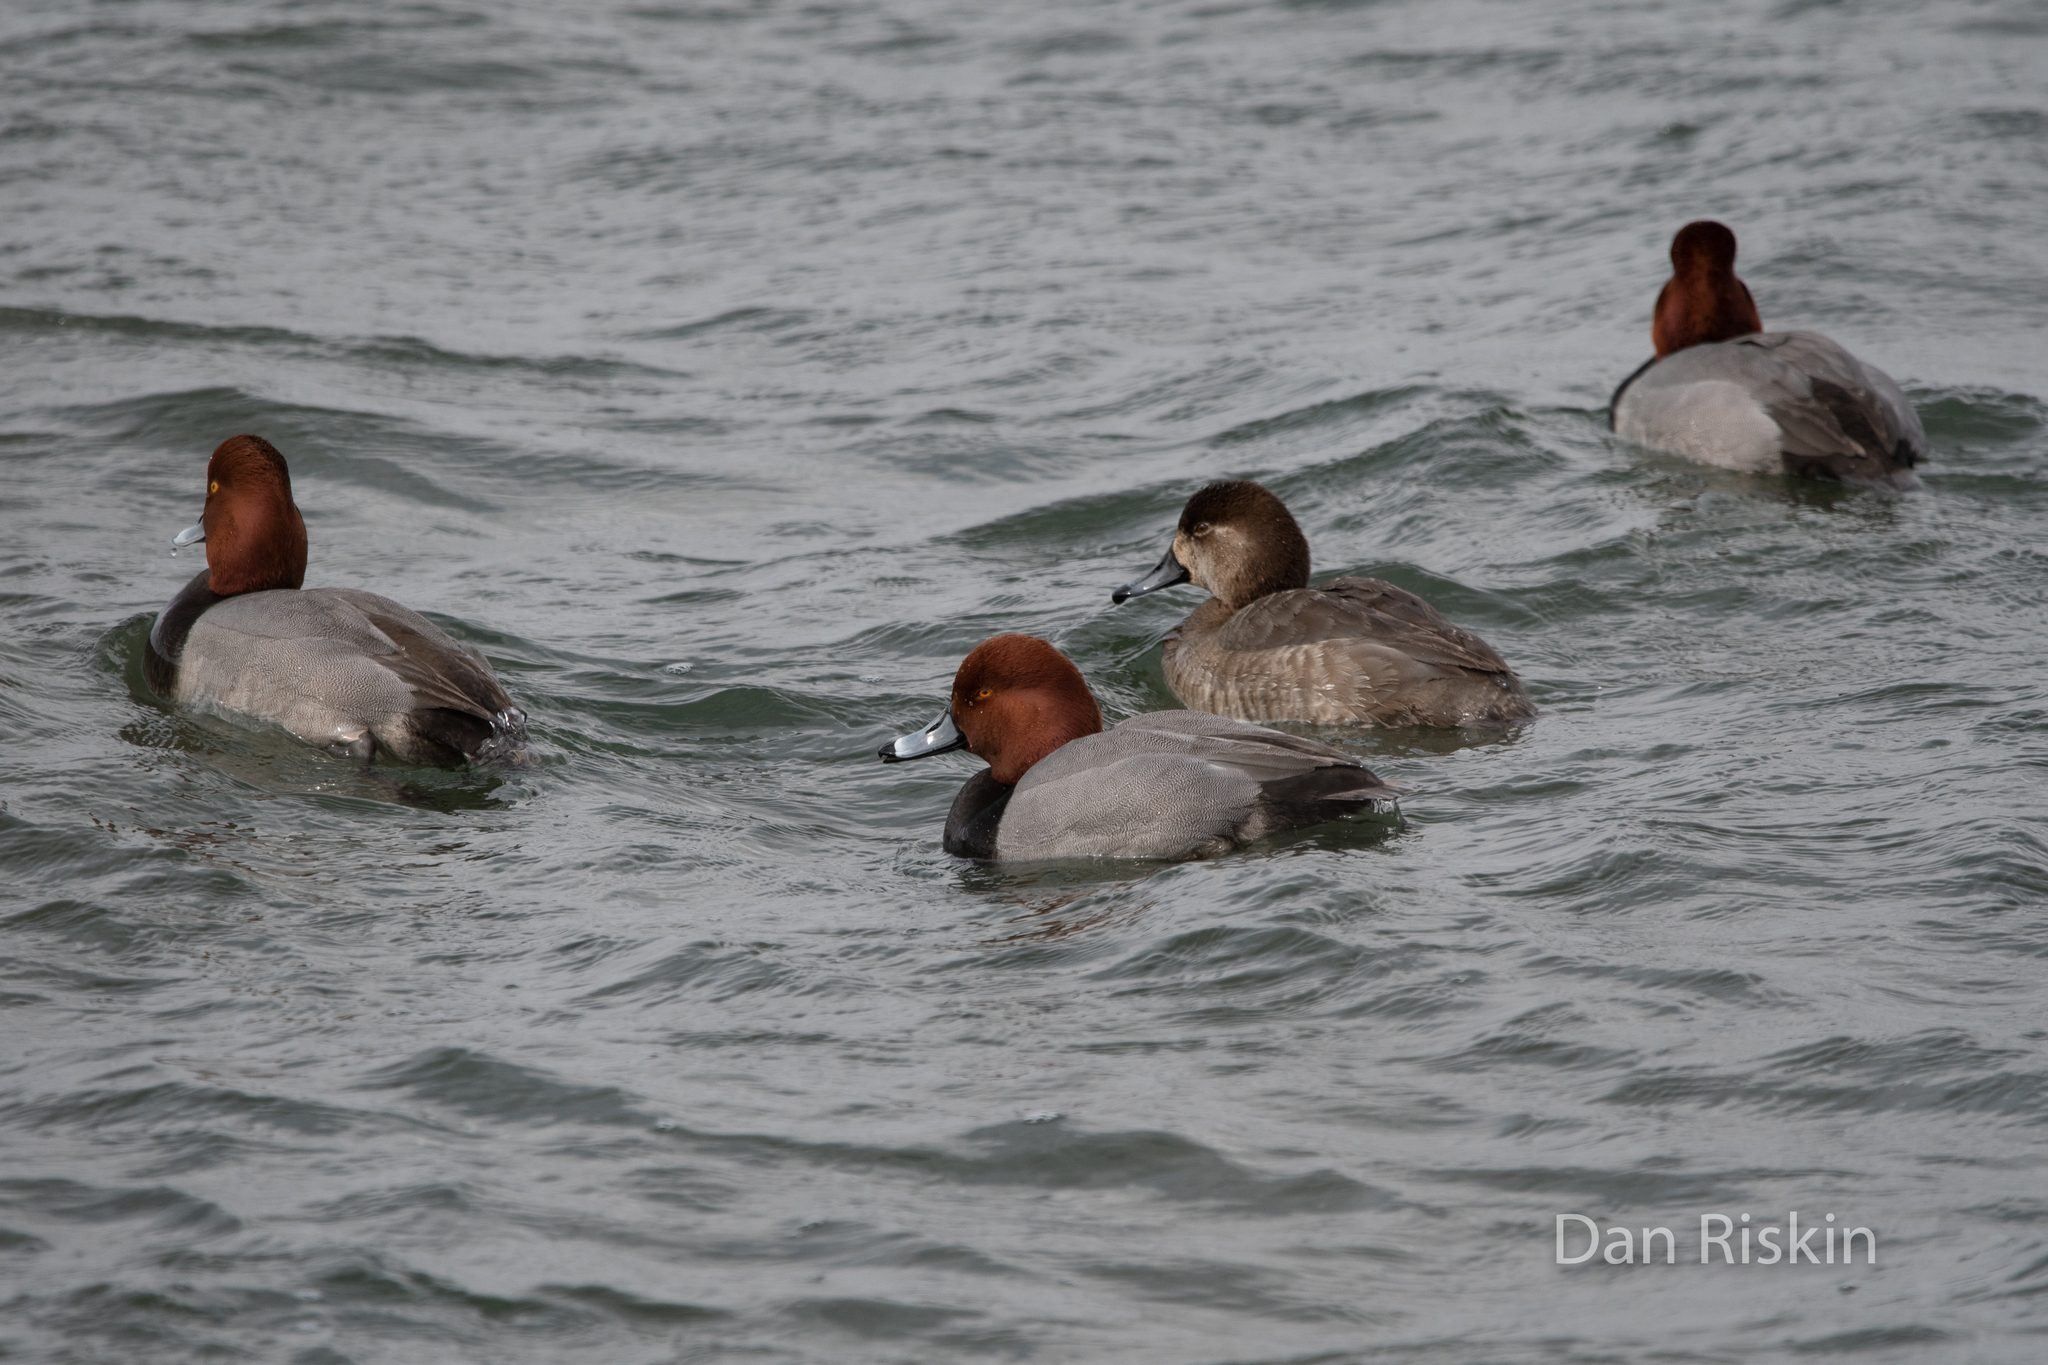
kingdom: Animalia
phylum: Chordata
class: Aves
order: Anseriformes
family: Anatidae
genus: Aythya
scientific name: Aythya americana
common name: Redhead
